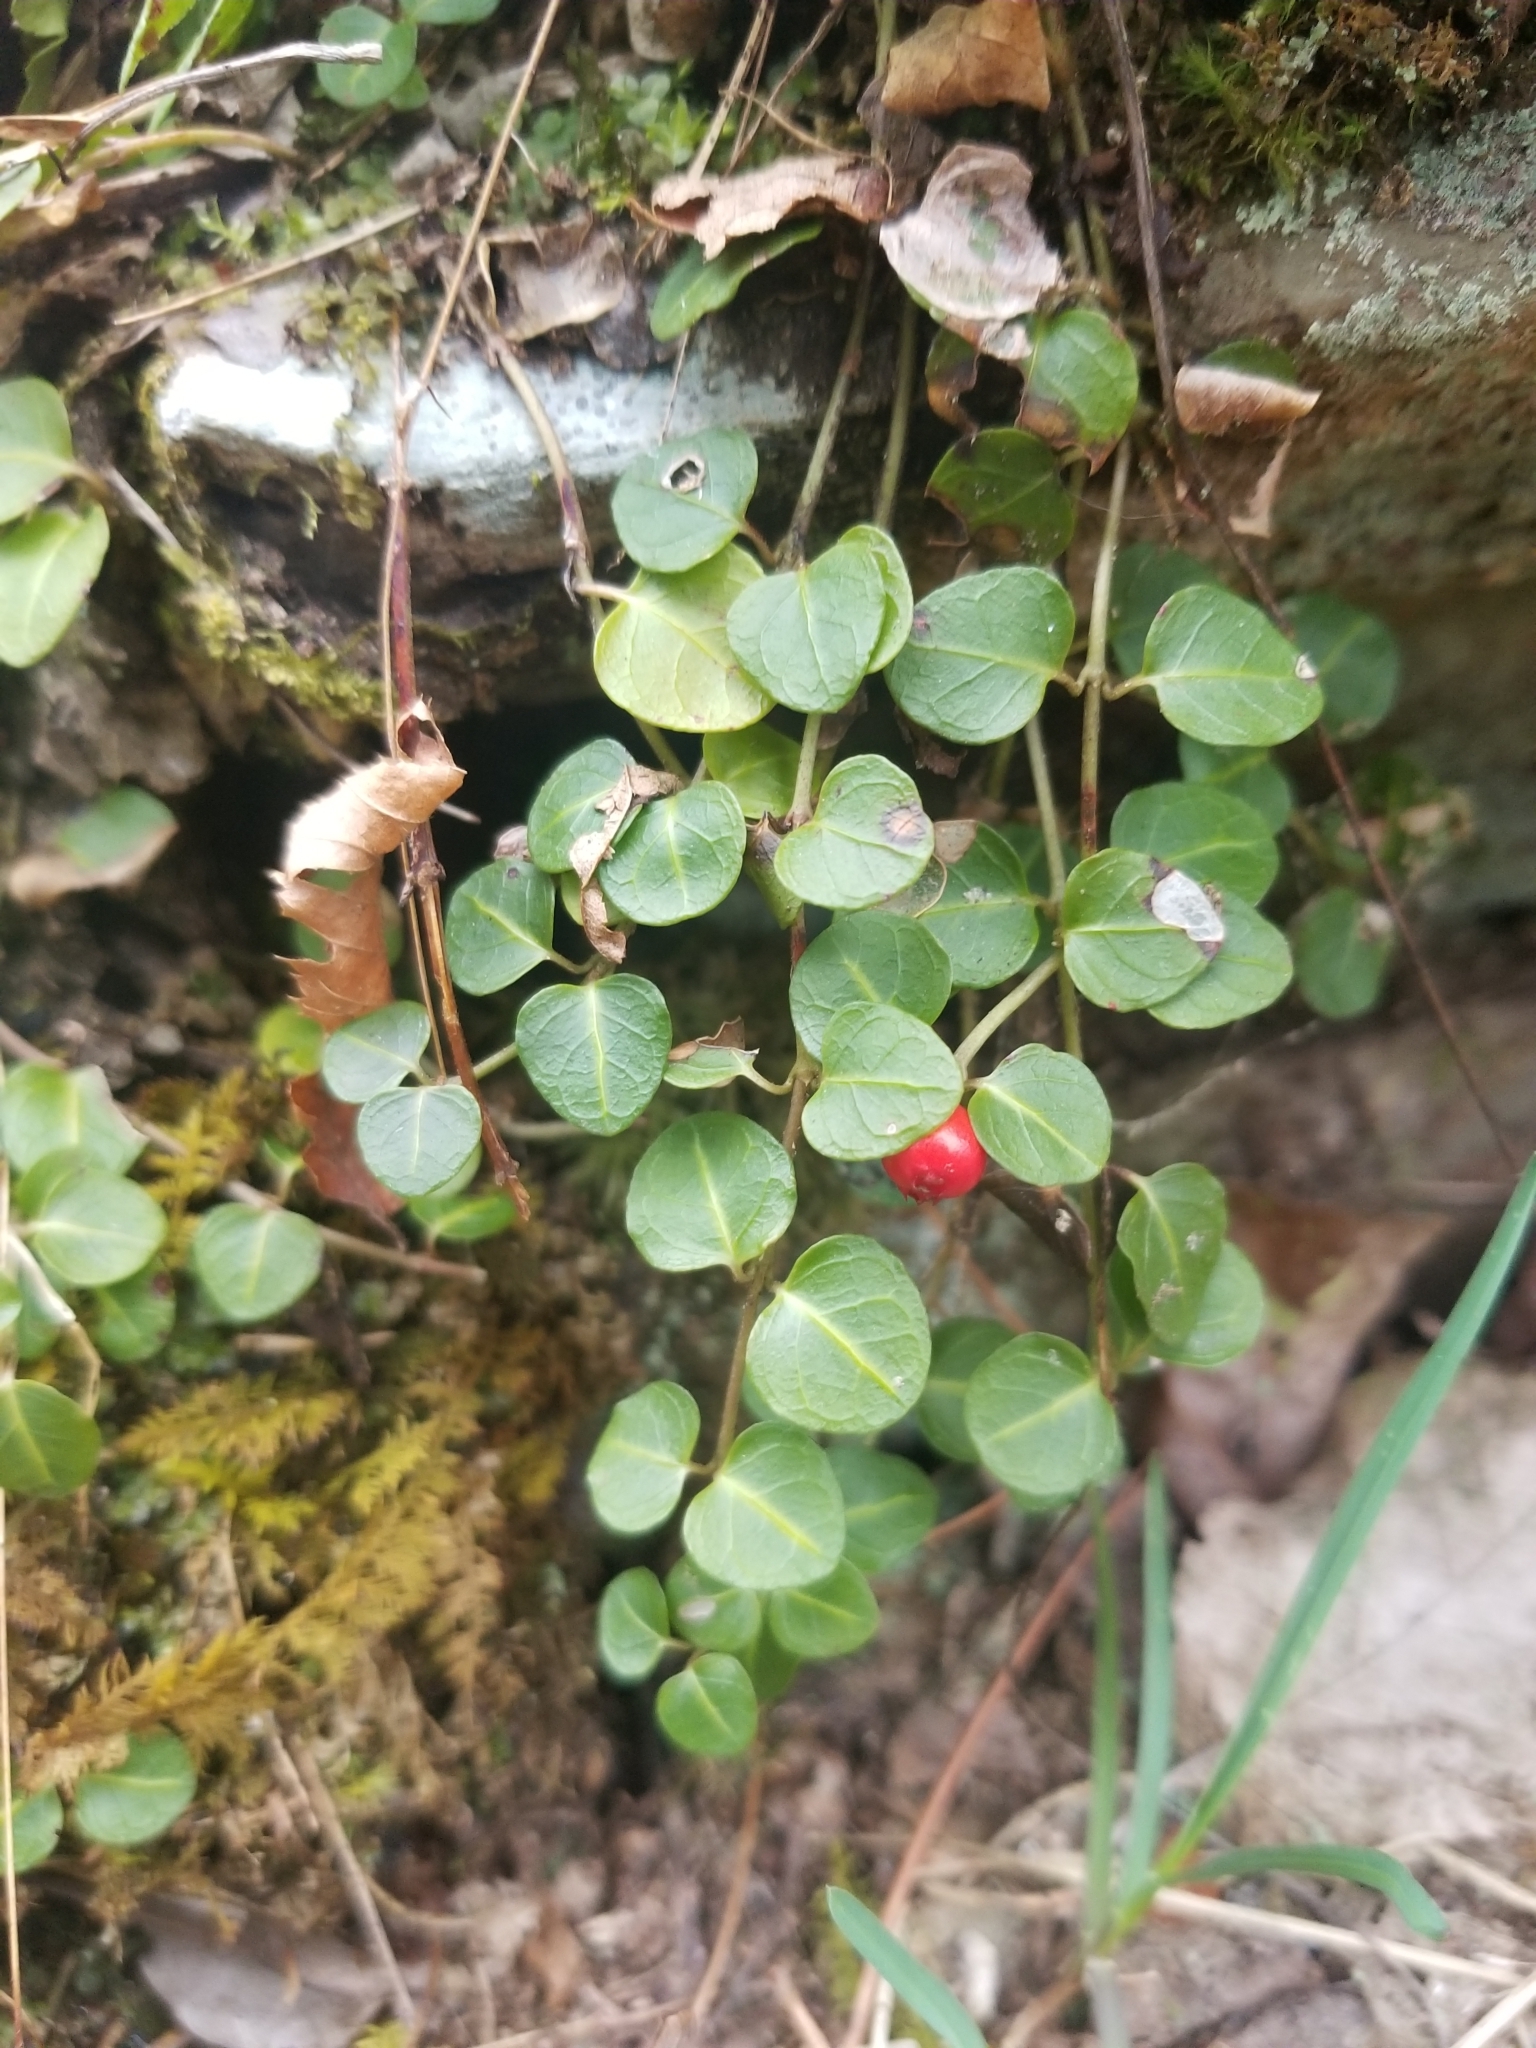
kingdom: Plantae
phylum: Tracheophyta
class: Magnoliopsida
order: Gentianales
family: Rubiaceae
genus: Mitchella
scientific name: Mitchella repens
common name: Partridge-berry
